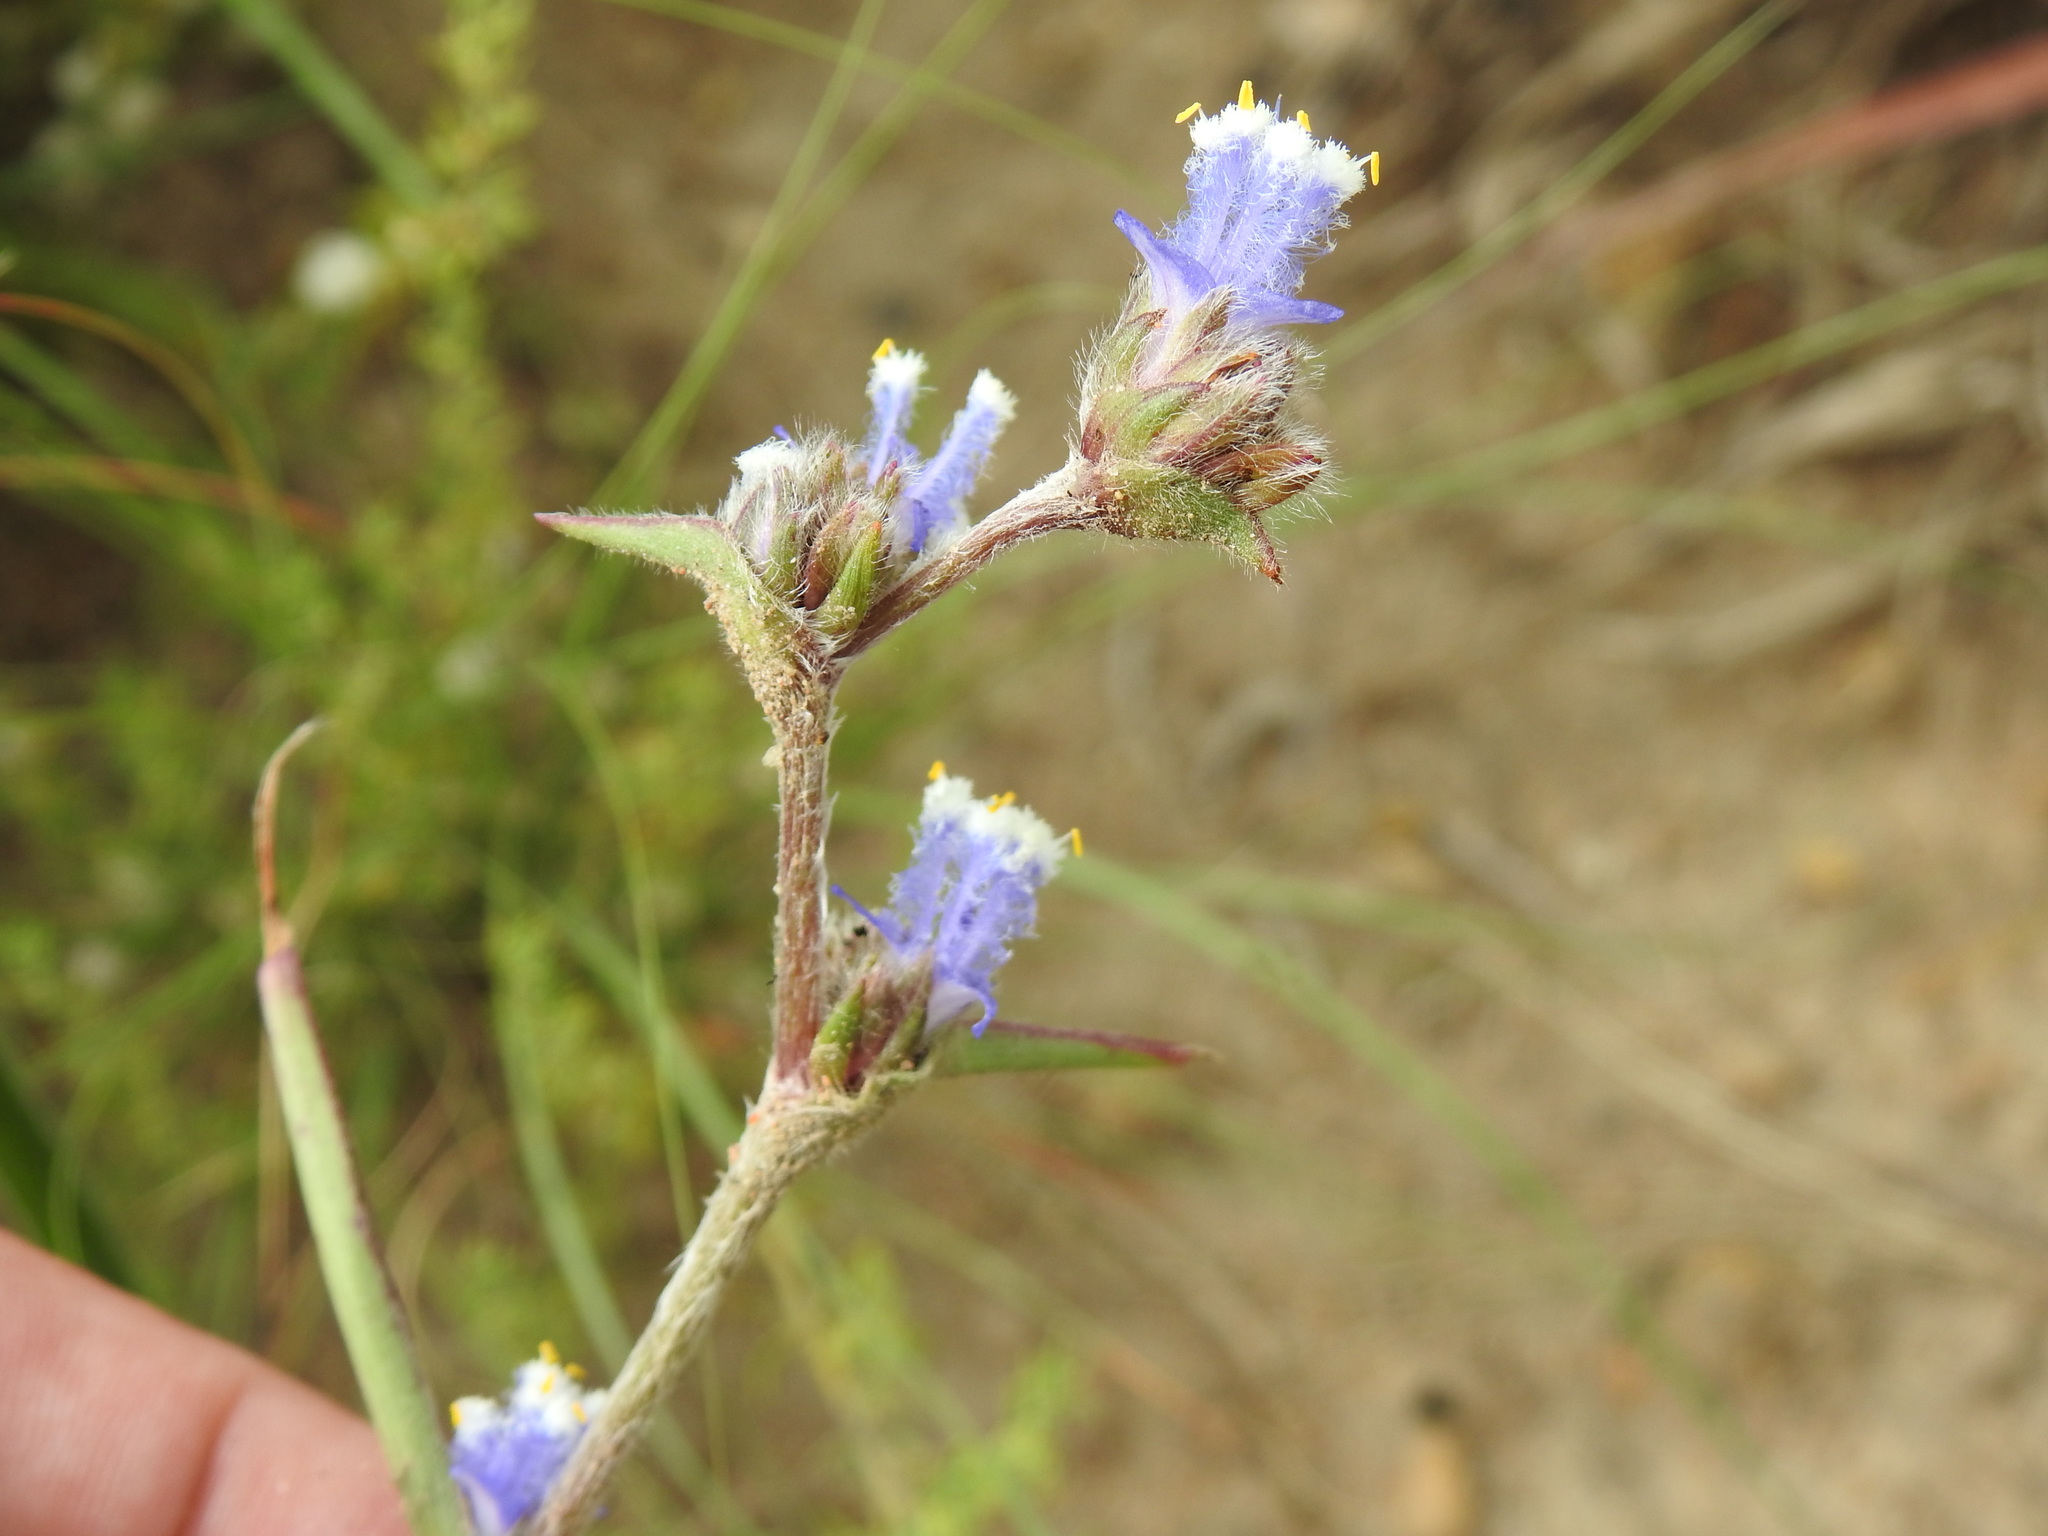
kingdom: Plantae
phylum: Tracheophyta
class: Liliopsida
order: Commelinales
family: Commelinaceae
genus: Cyanotis
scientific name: Cyanotis speciosa
